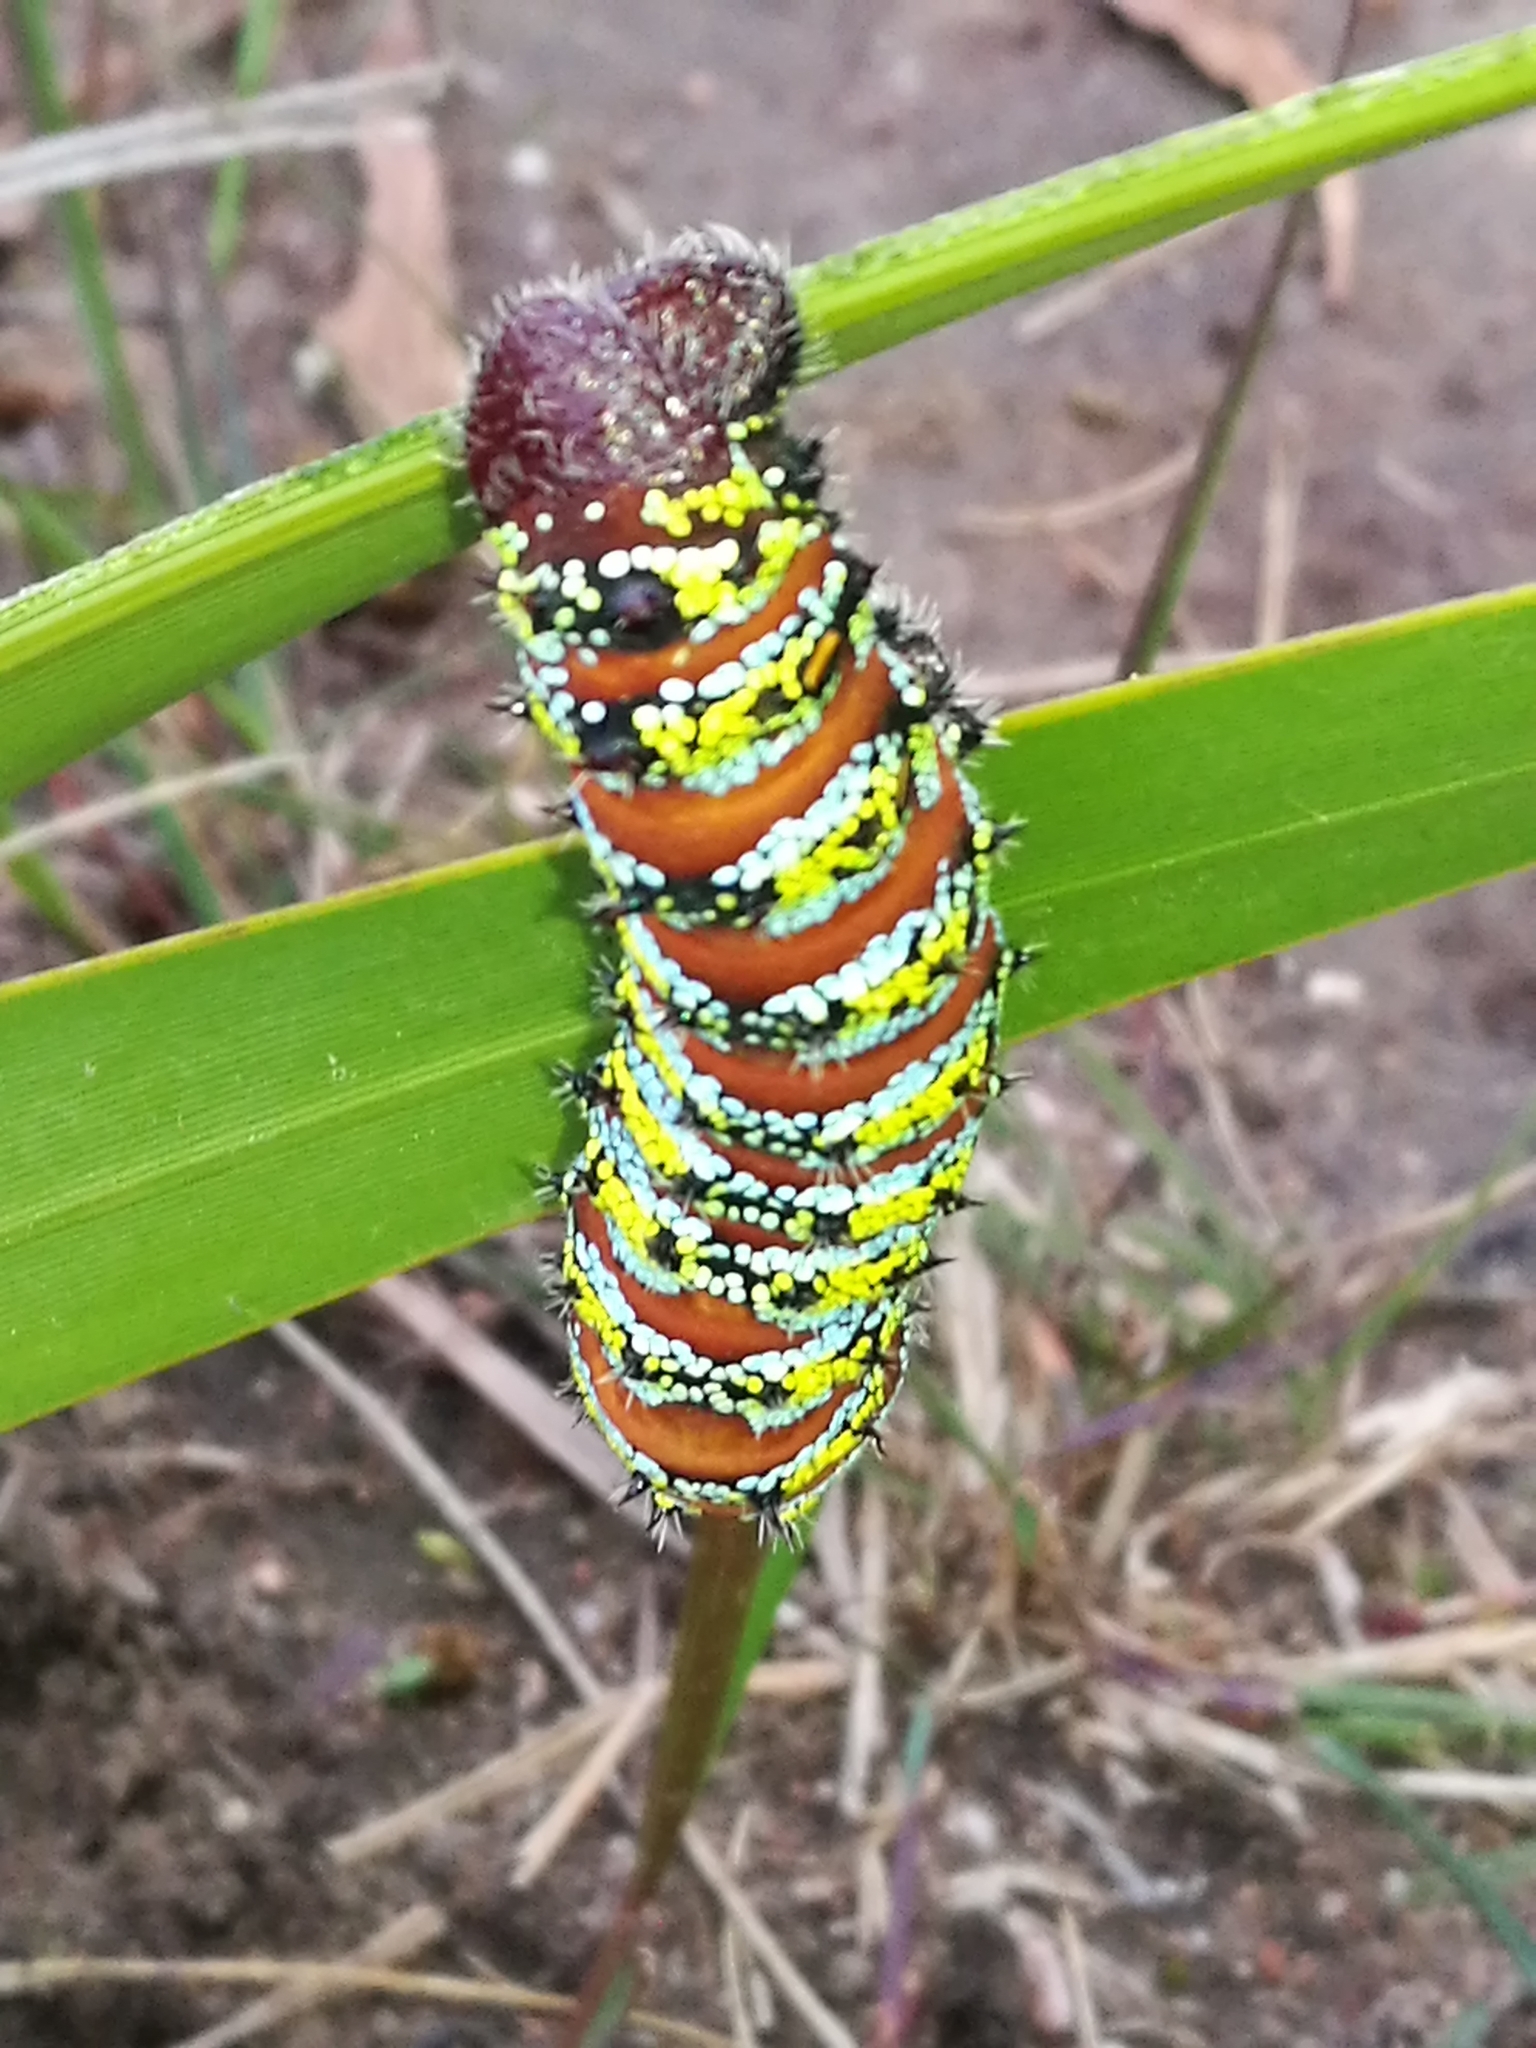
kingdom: Animalia
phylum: Arthropoda
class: Insecta
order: Lepidoptera
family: Saturniidae
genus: Nudaurelia
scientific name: Nudaurelia cytherea
